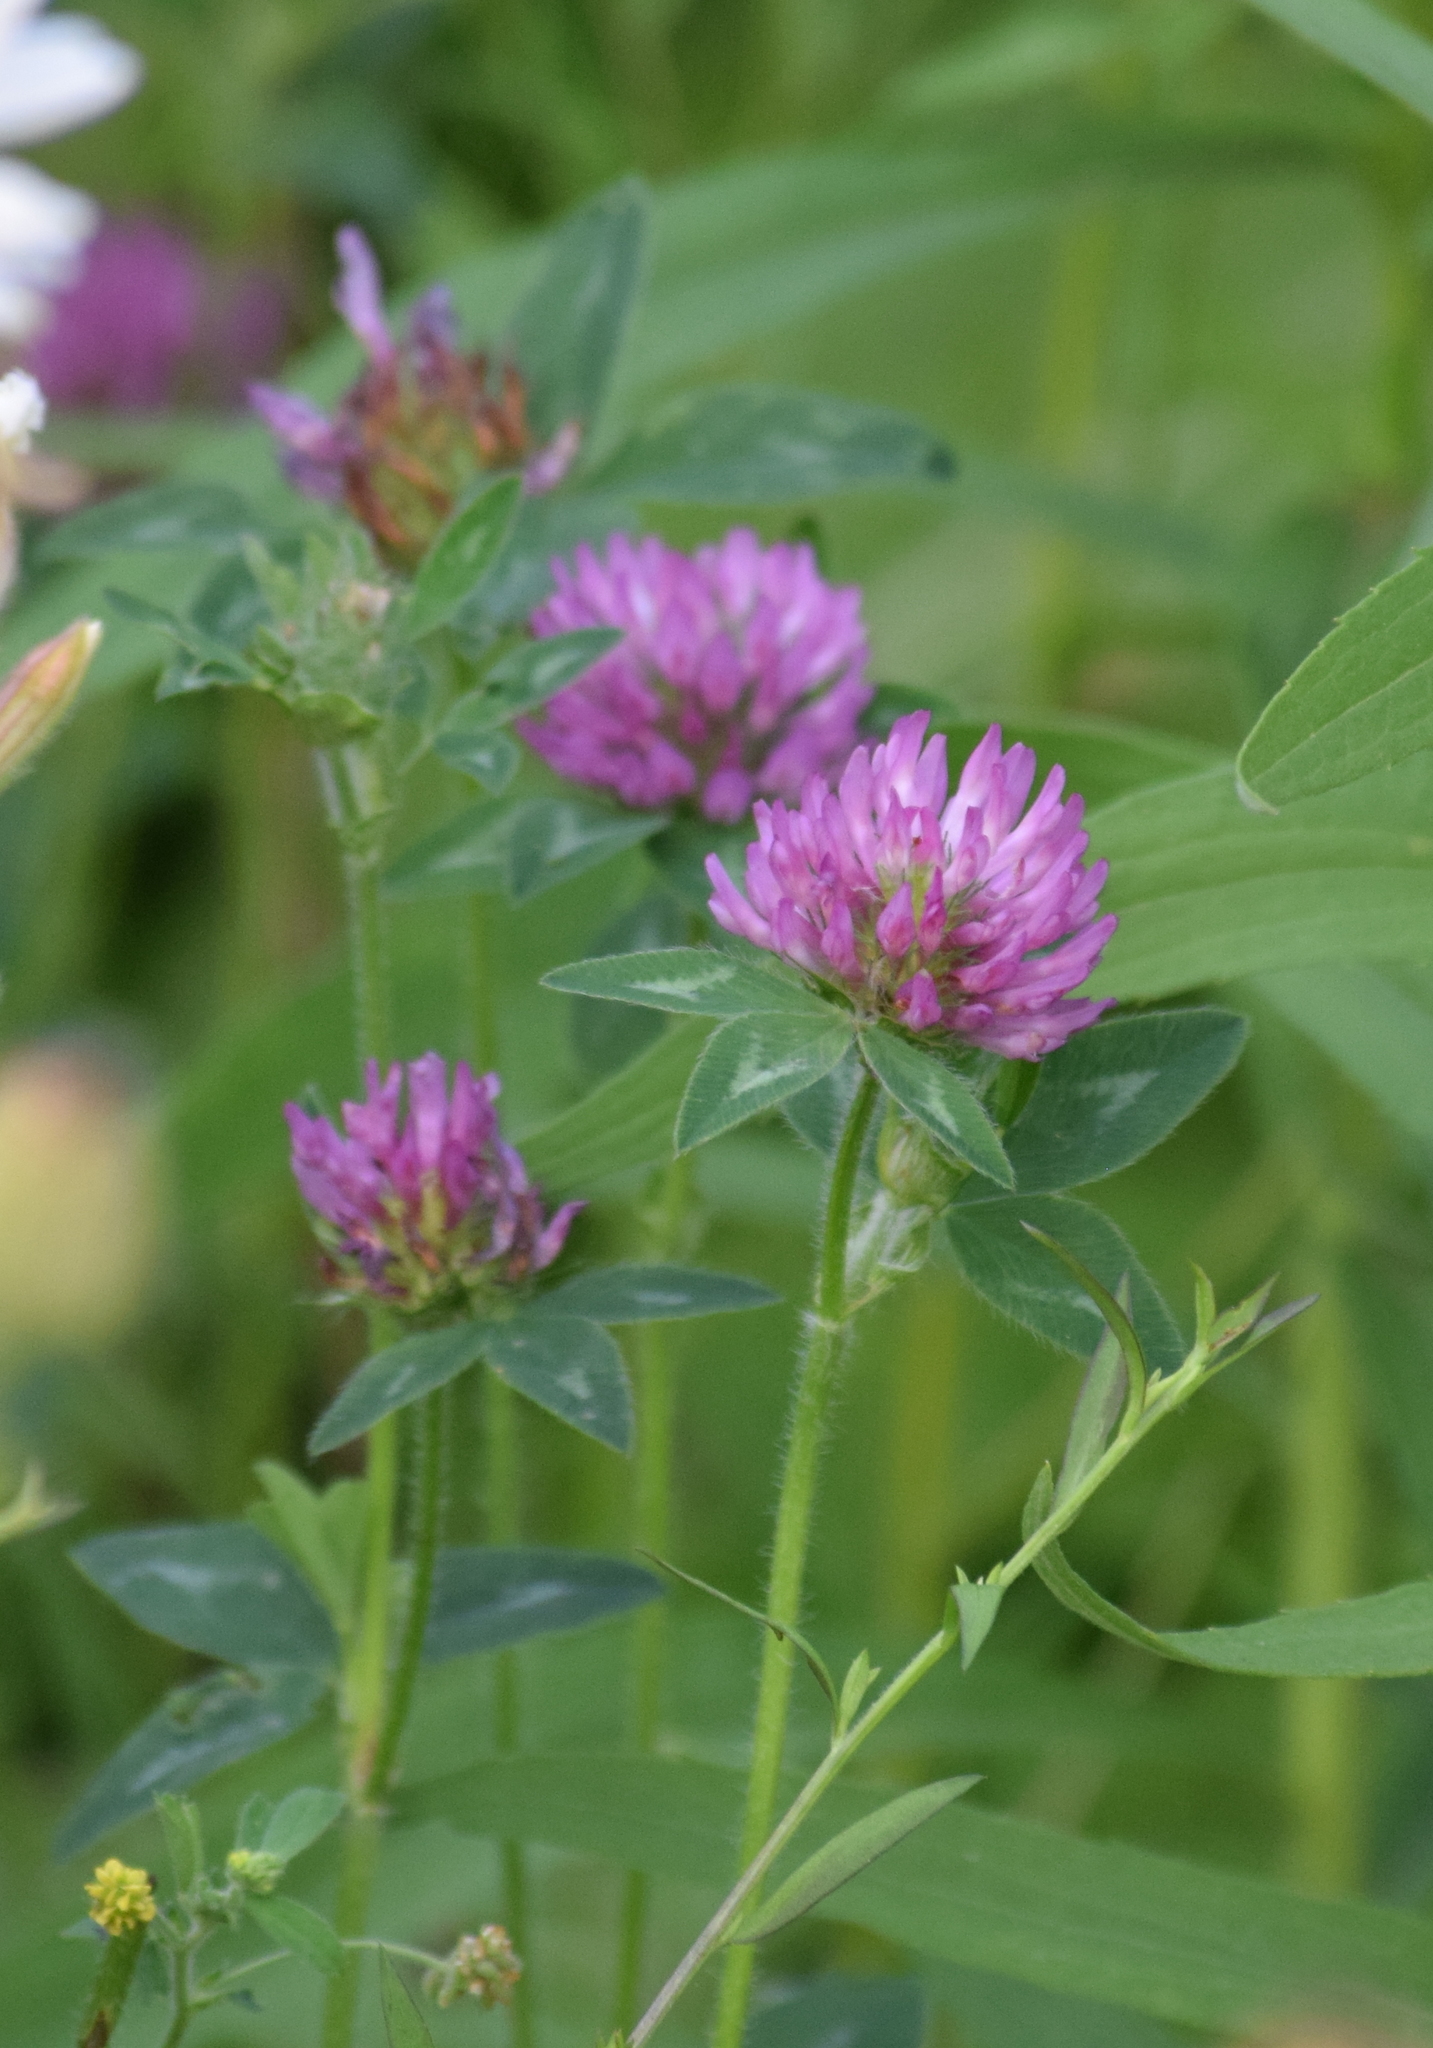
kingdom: Plantae
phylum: Tracheophyta
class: Magnoliopsida
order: Fabales
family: Fabaceae
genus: Trifolium
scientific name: Trifolium pratense
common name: Red clover
